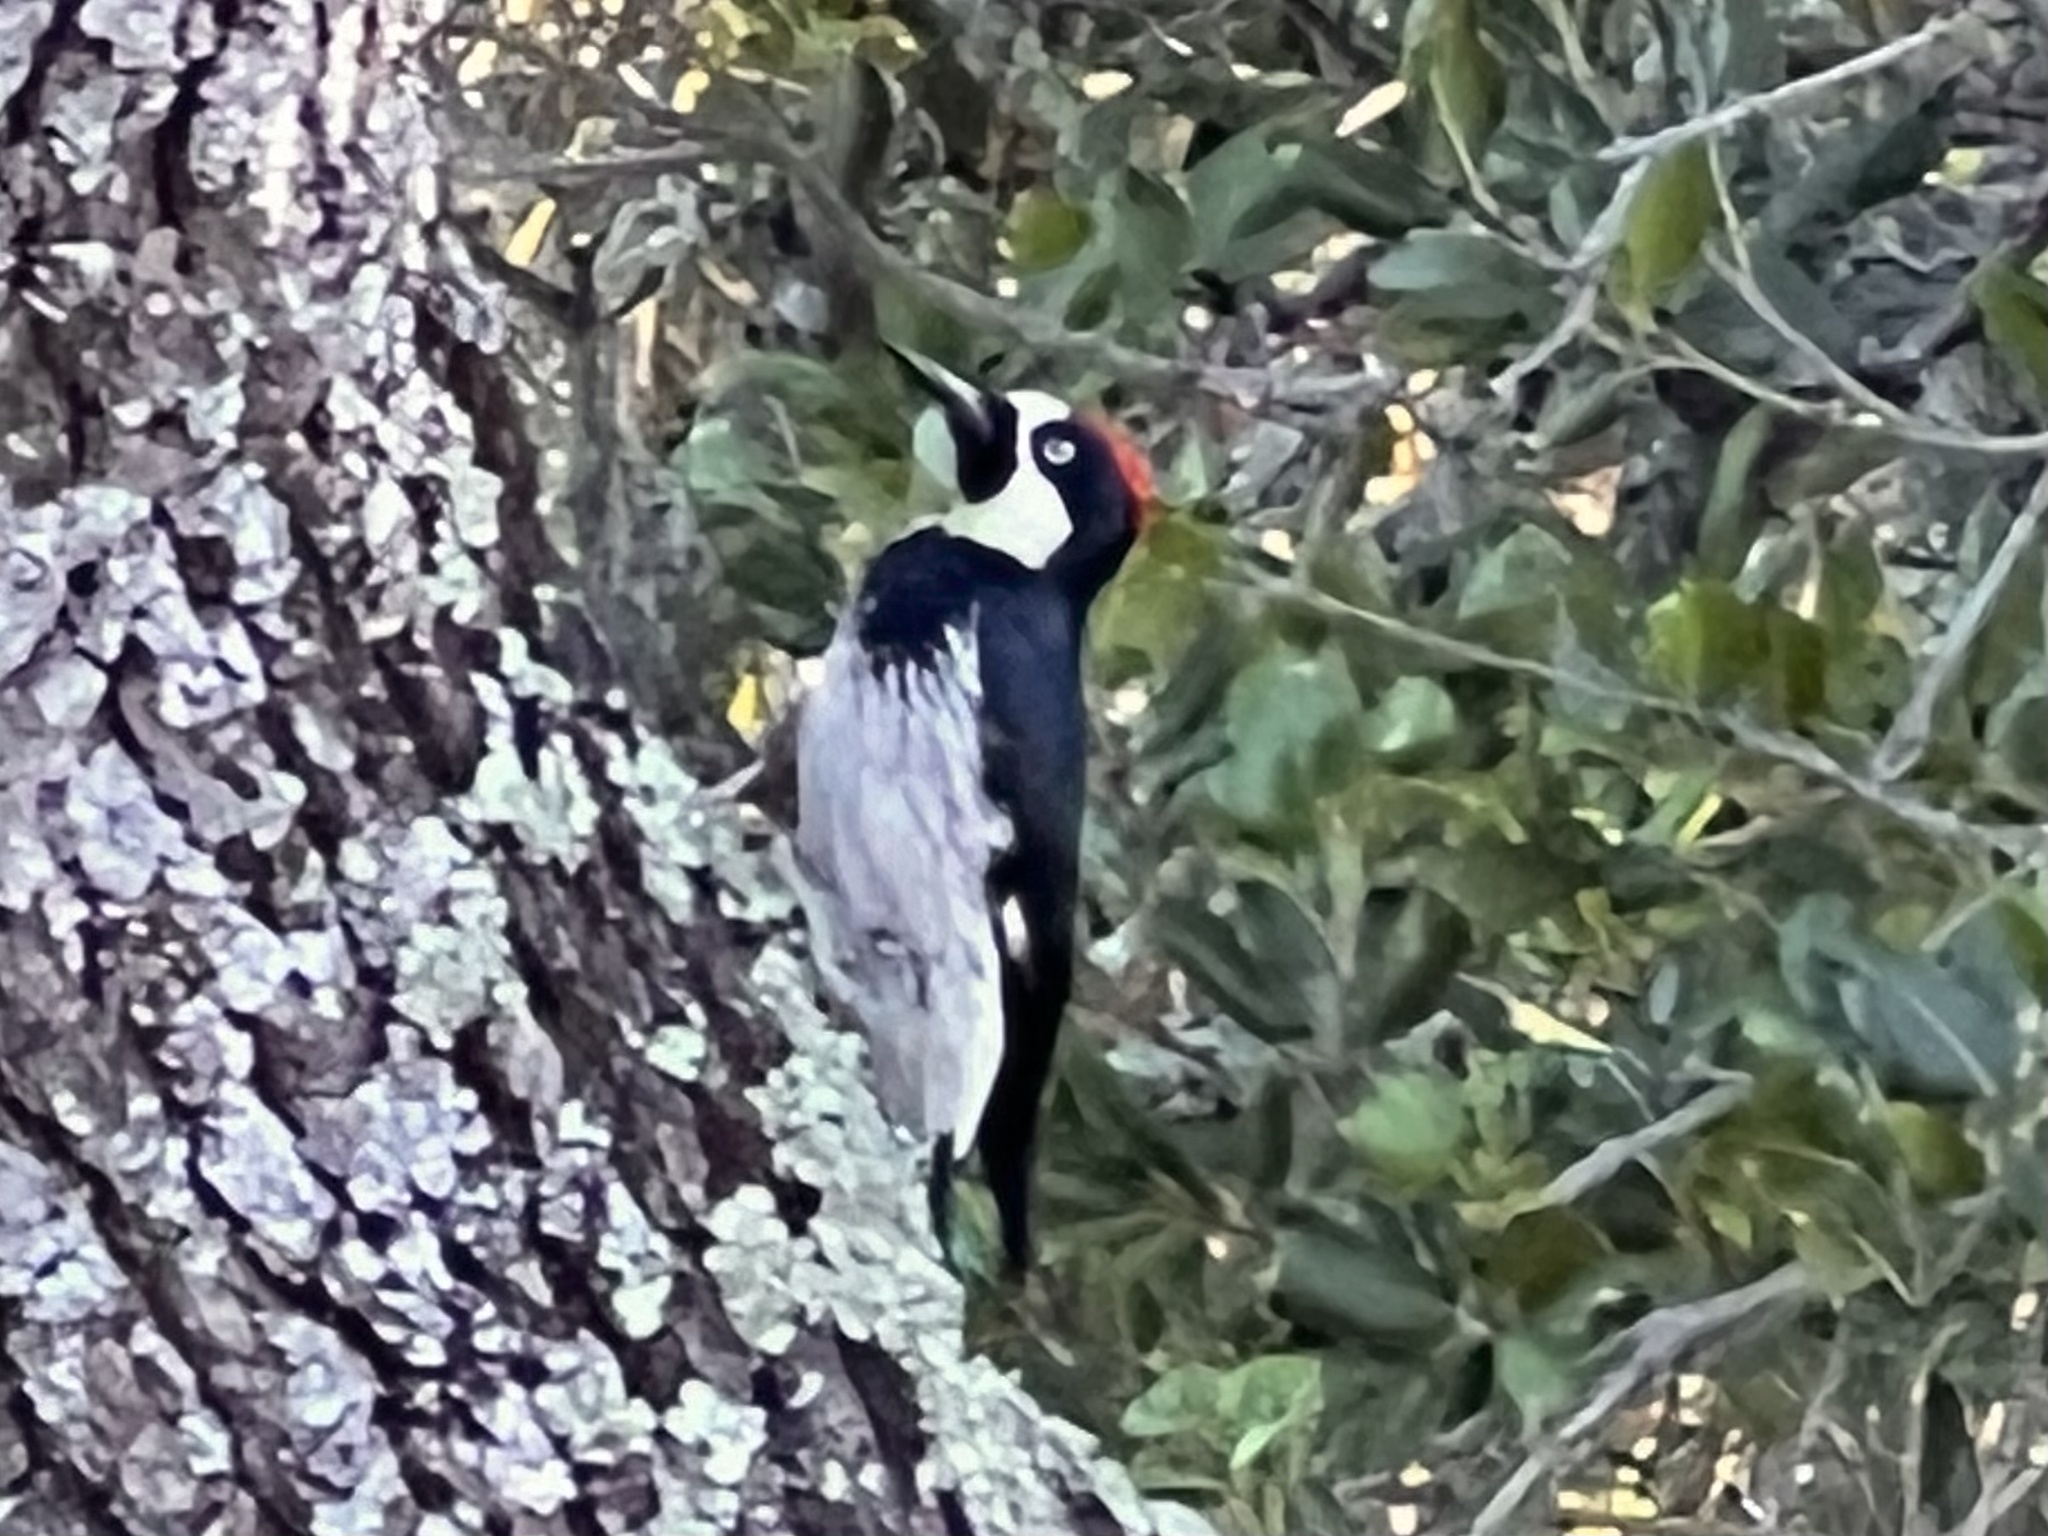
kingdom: Animalia
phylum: Chordata
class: Aves
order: Piciformes
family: Picidae
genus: Melanerpes
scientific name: Melanerpes formicivorus
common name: Acorn woodpecker
